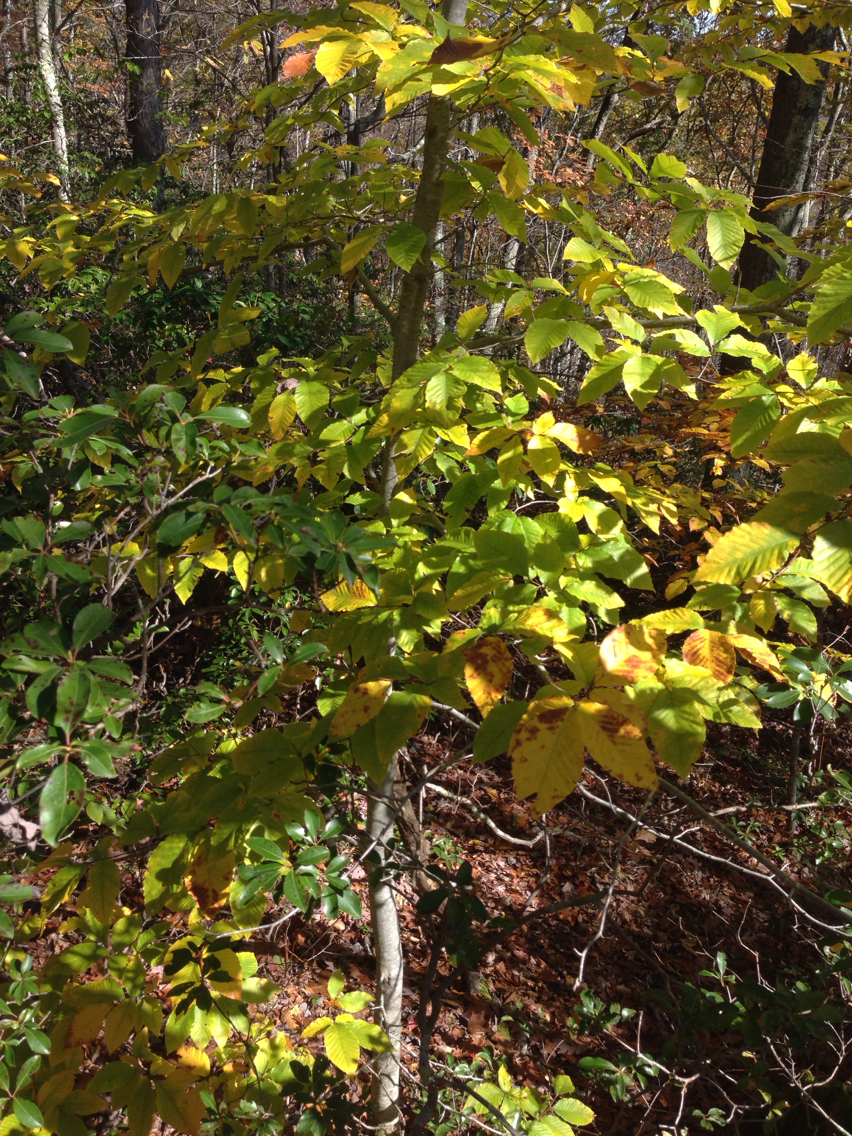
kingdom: Plantae
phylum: Tracheophyta
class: Magnoliopsida
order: Fagales
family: Fagaceae
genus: Fagus
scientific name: Fagus grandifolia
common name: American beech
